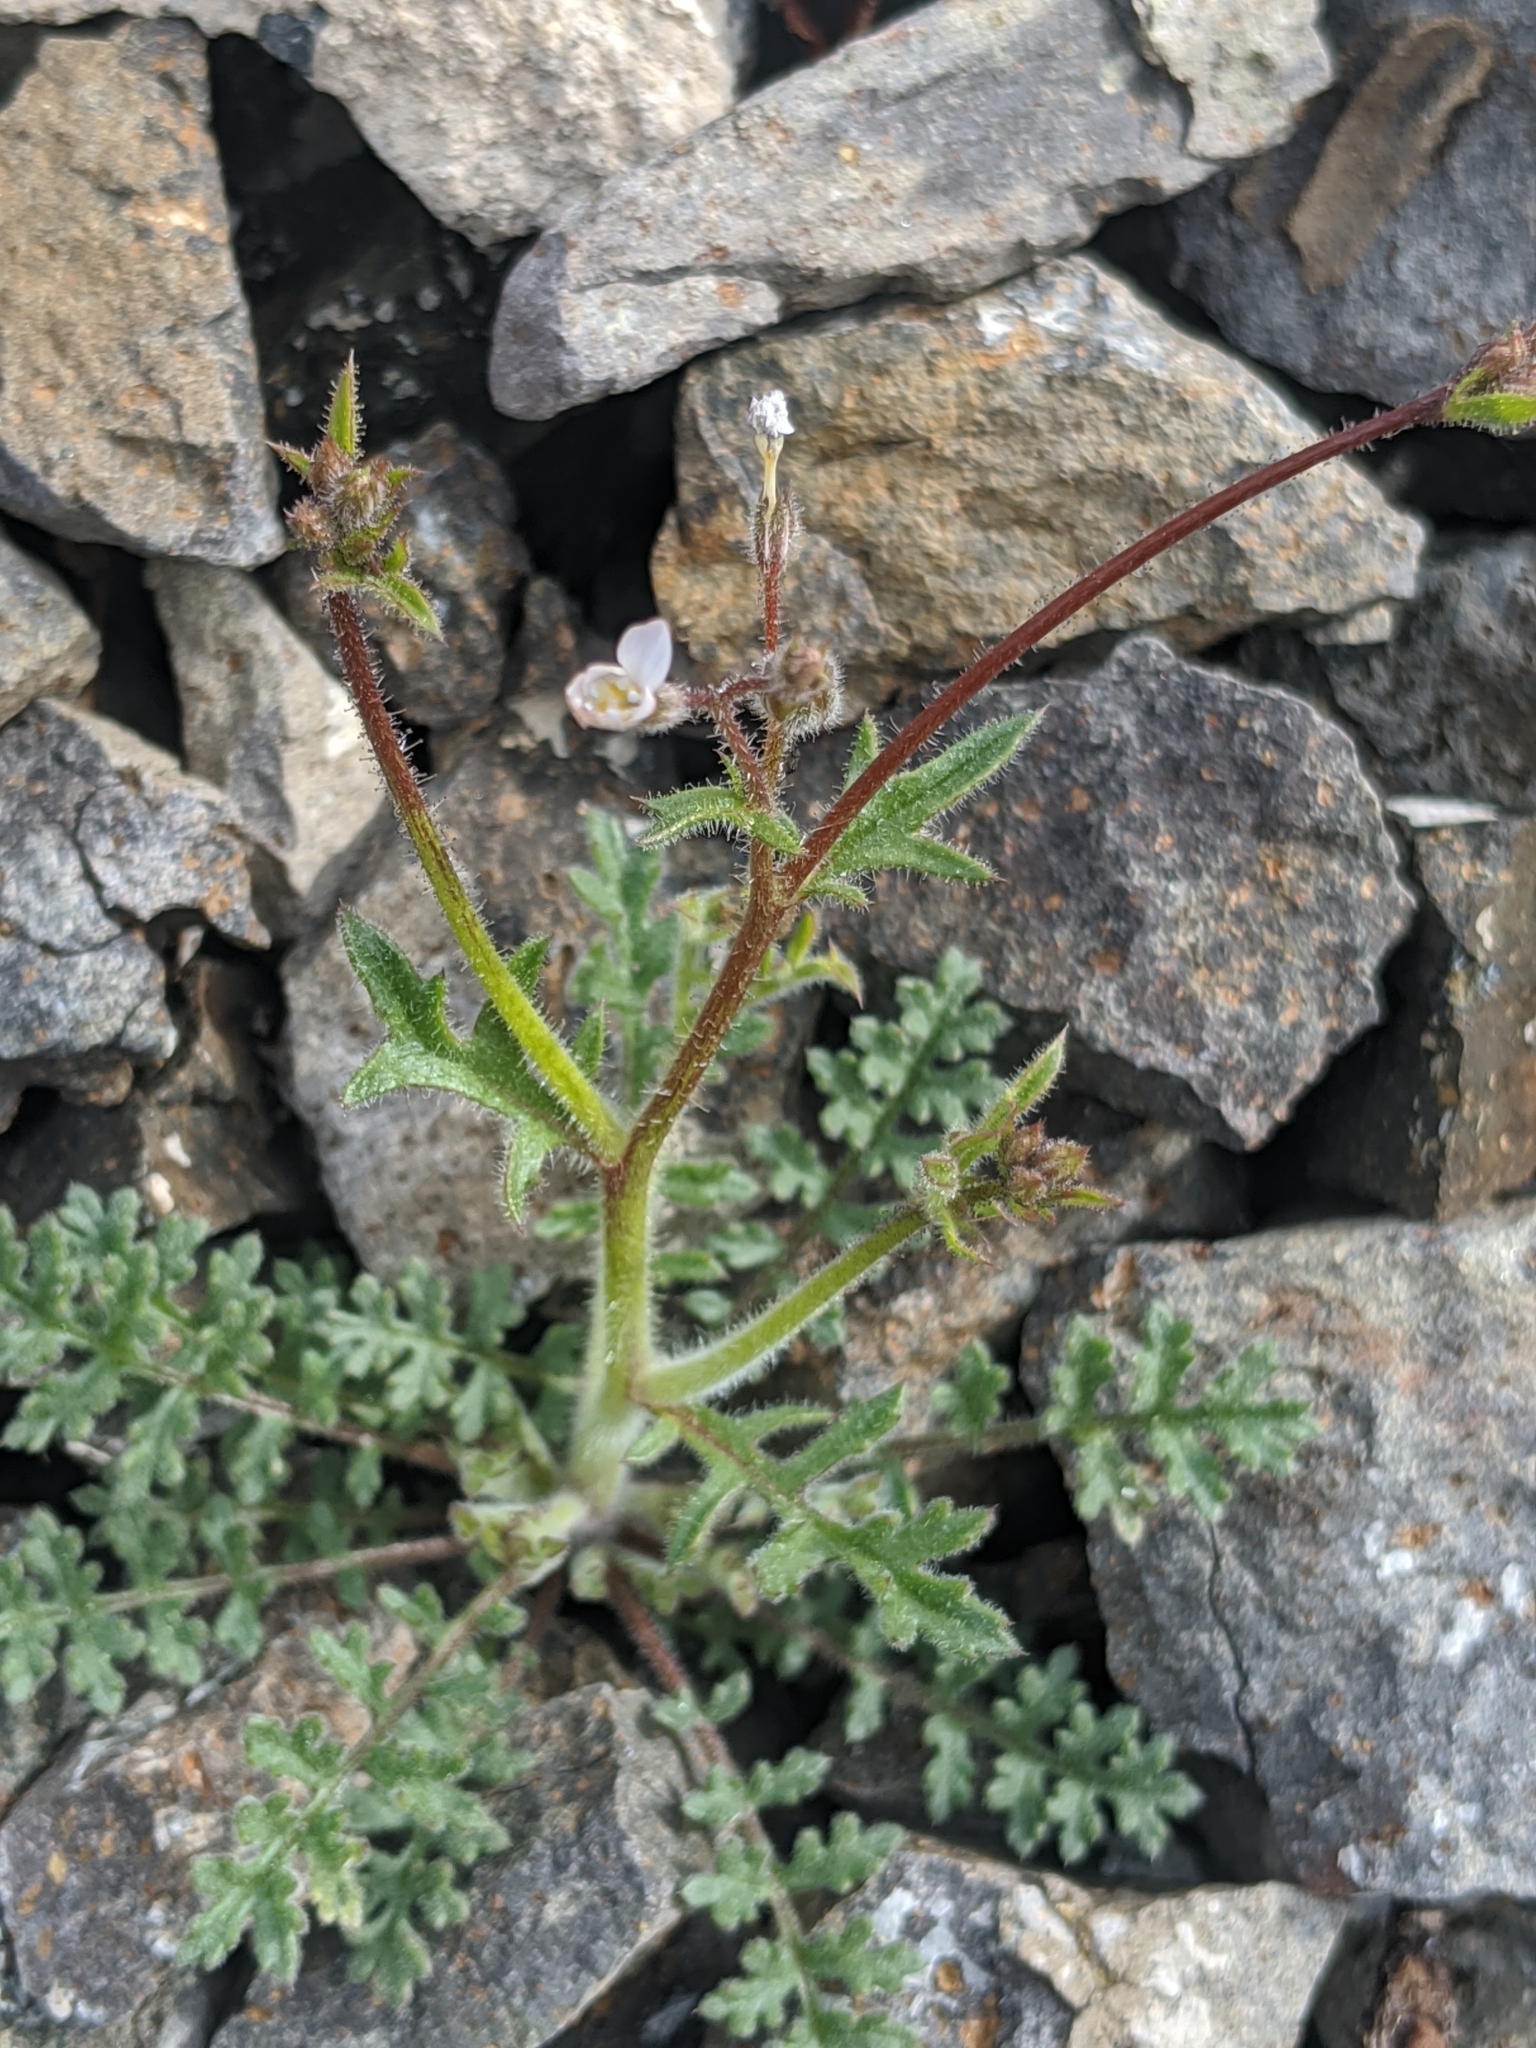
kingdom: Plantae
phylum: Tracheophyta
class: Magnoliopsida
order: Ericales
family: Polemoniaceae
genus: Gilia
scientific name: Gilia stellata
